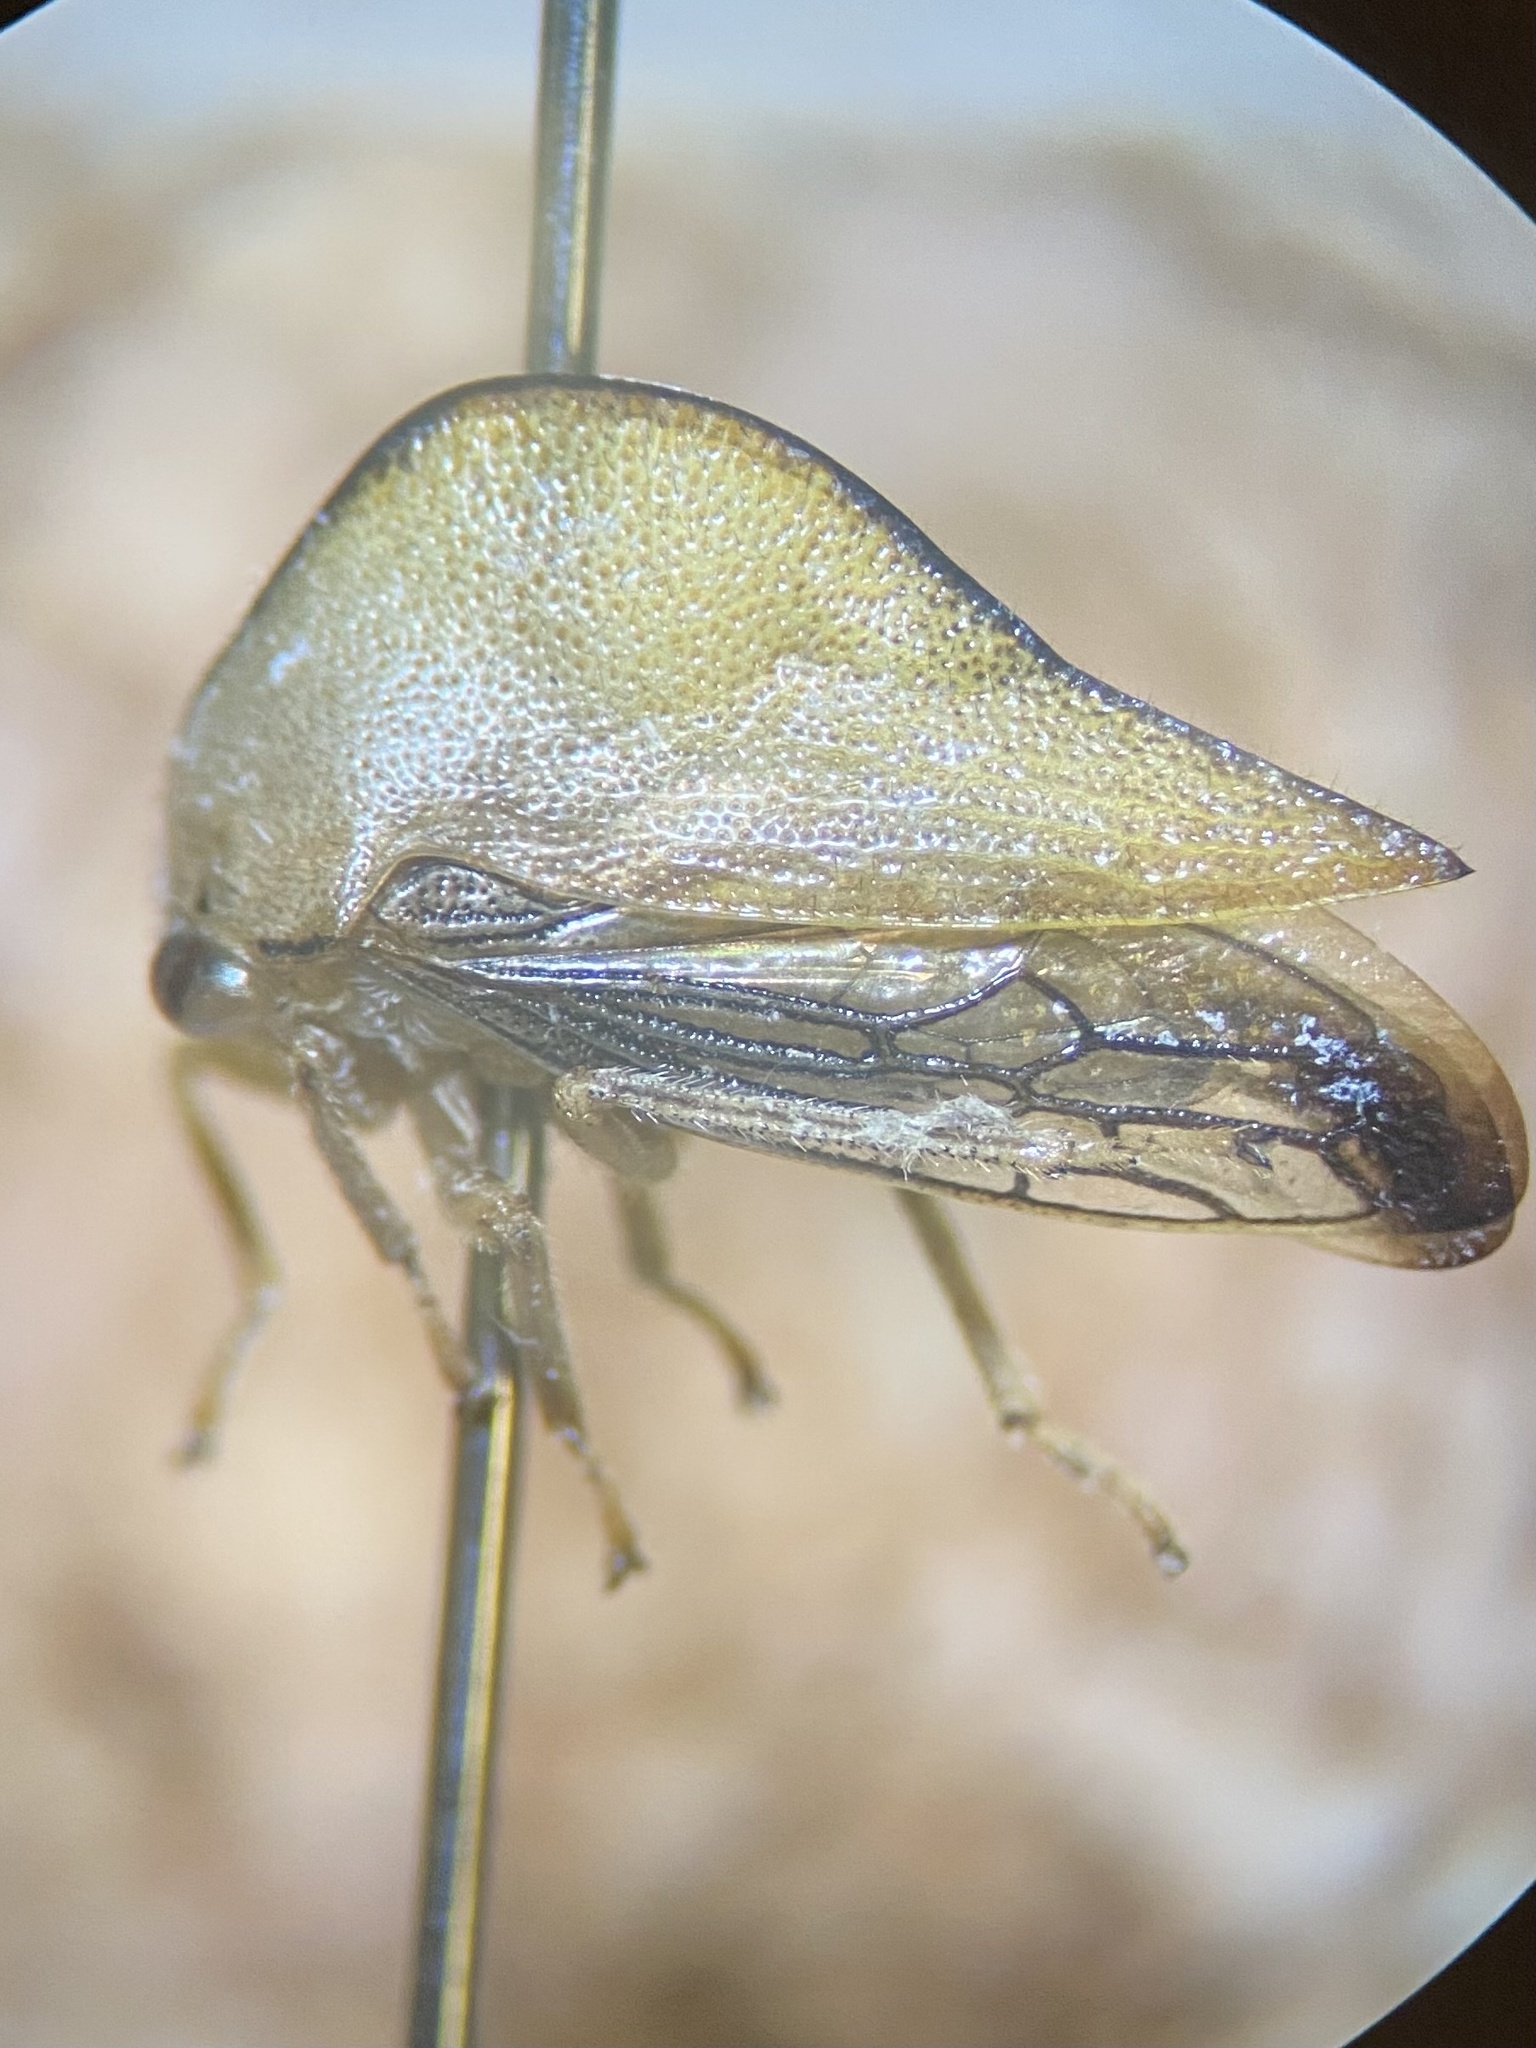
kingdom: Animalia
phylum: Arthropoda
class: Insecta
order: Hemiptera
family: Membracidae
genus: Archasia
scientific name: Archasia pallida
